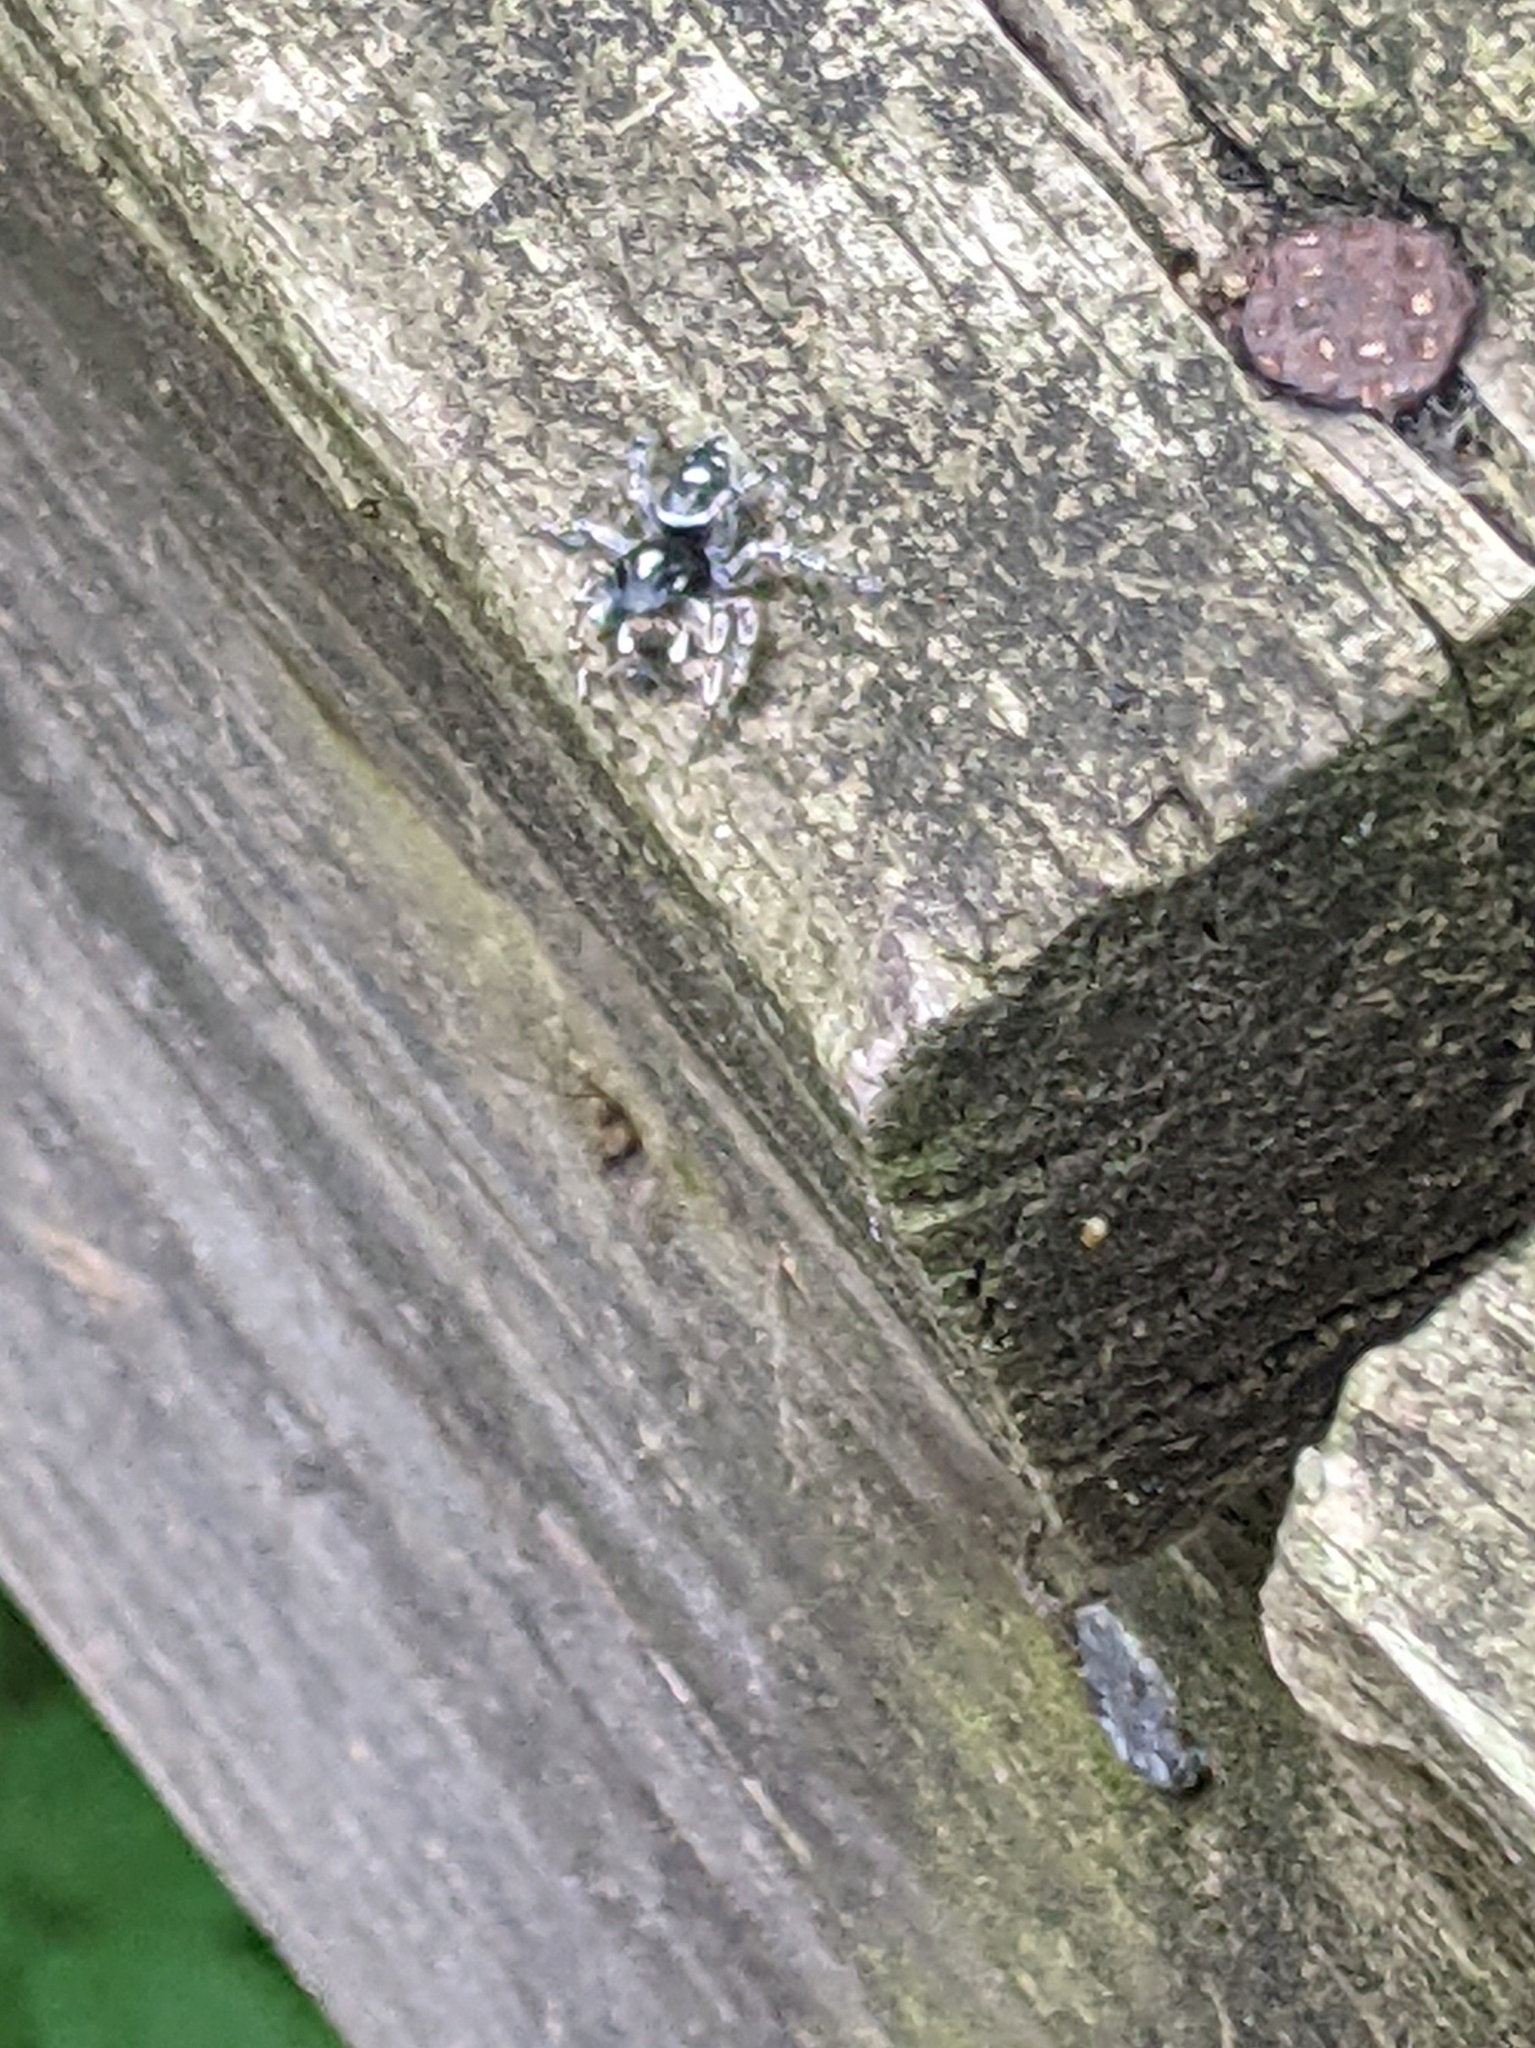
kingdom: Animalia
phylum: Arthropoda
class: Arachnida
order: Araneae
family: Salticidae
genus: Phidippus
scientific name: Phidippus putnami
